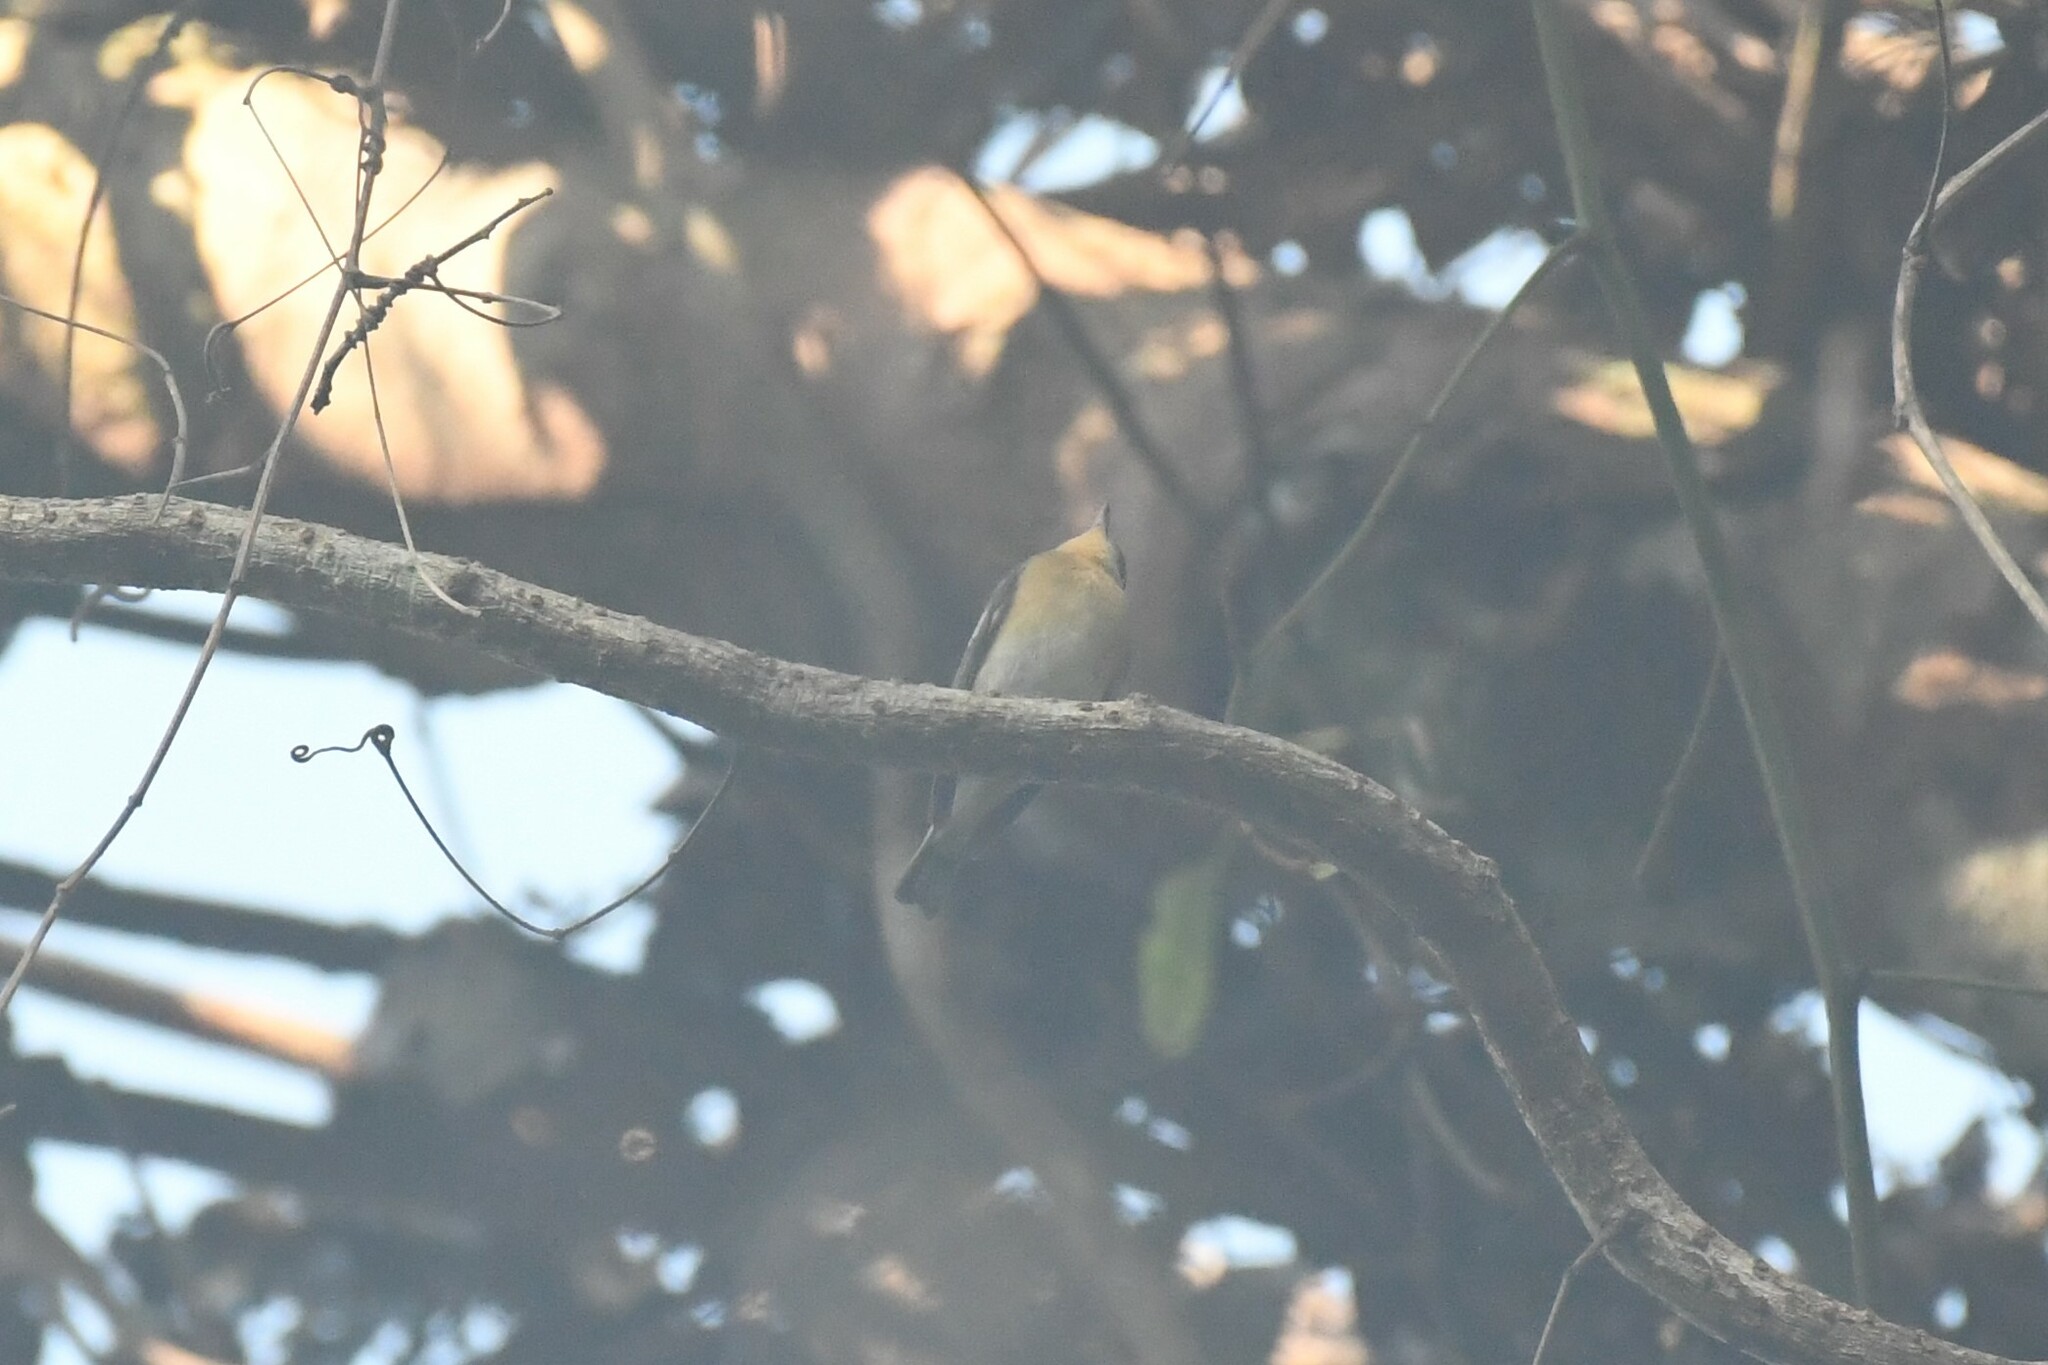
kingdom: Animalia
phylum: Chordata
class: Aves
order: Passeriformes
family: Muscicapidae
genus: Ficedula
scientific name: Ficedula mugimaki
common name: Mugimaki flycatcher
